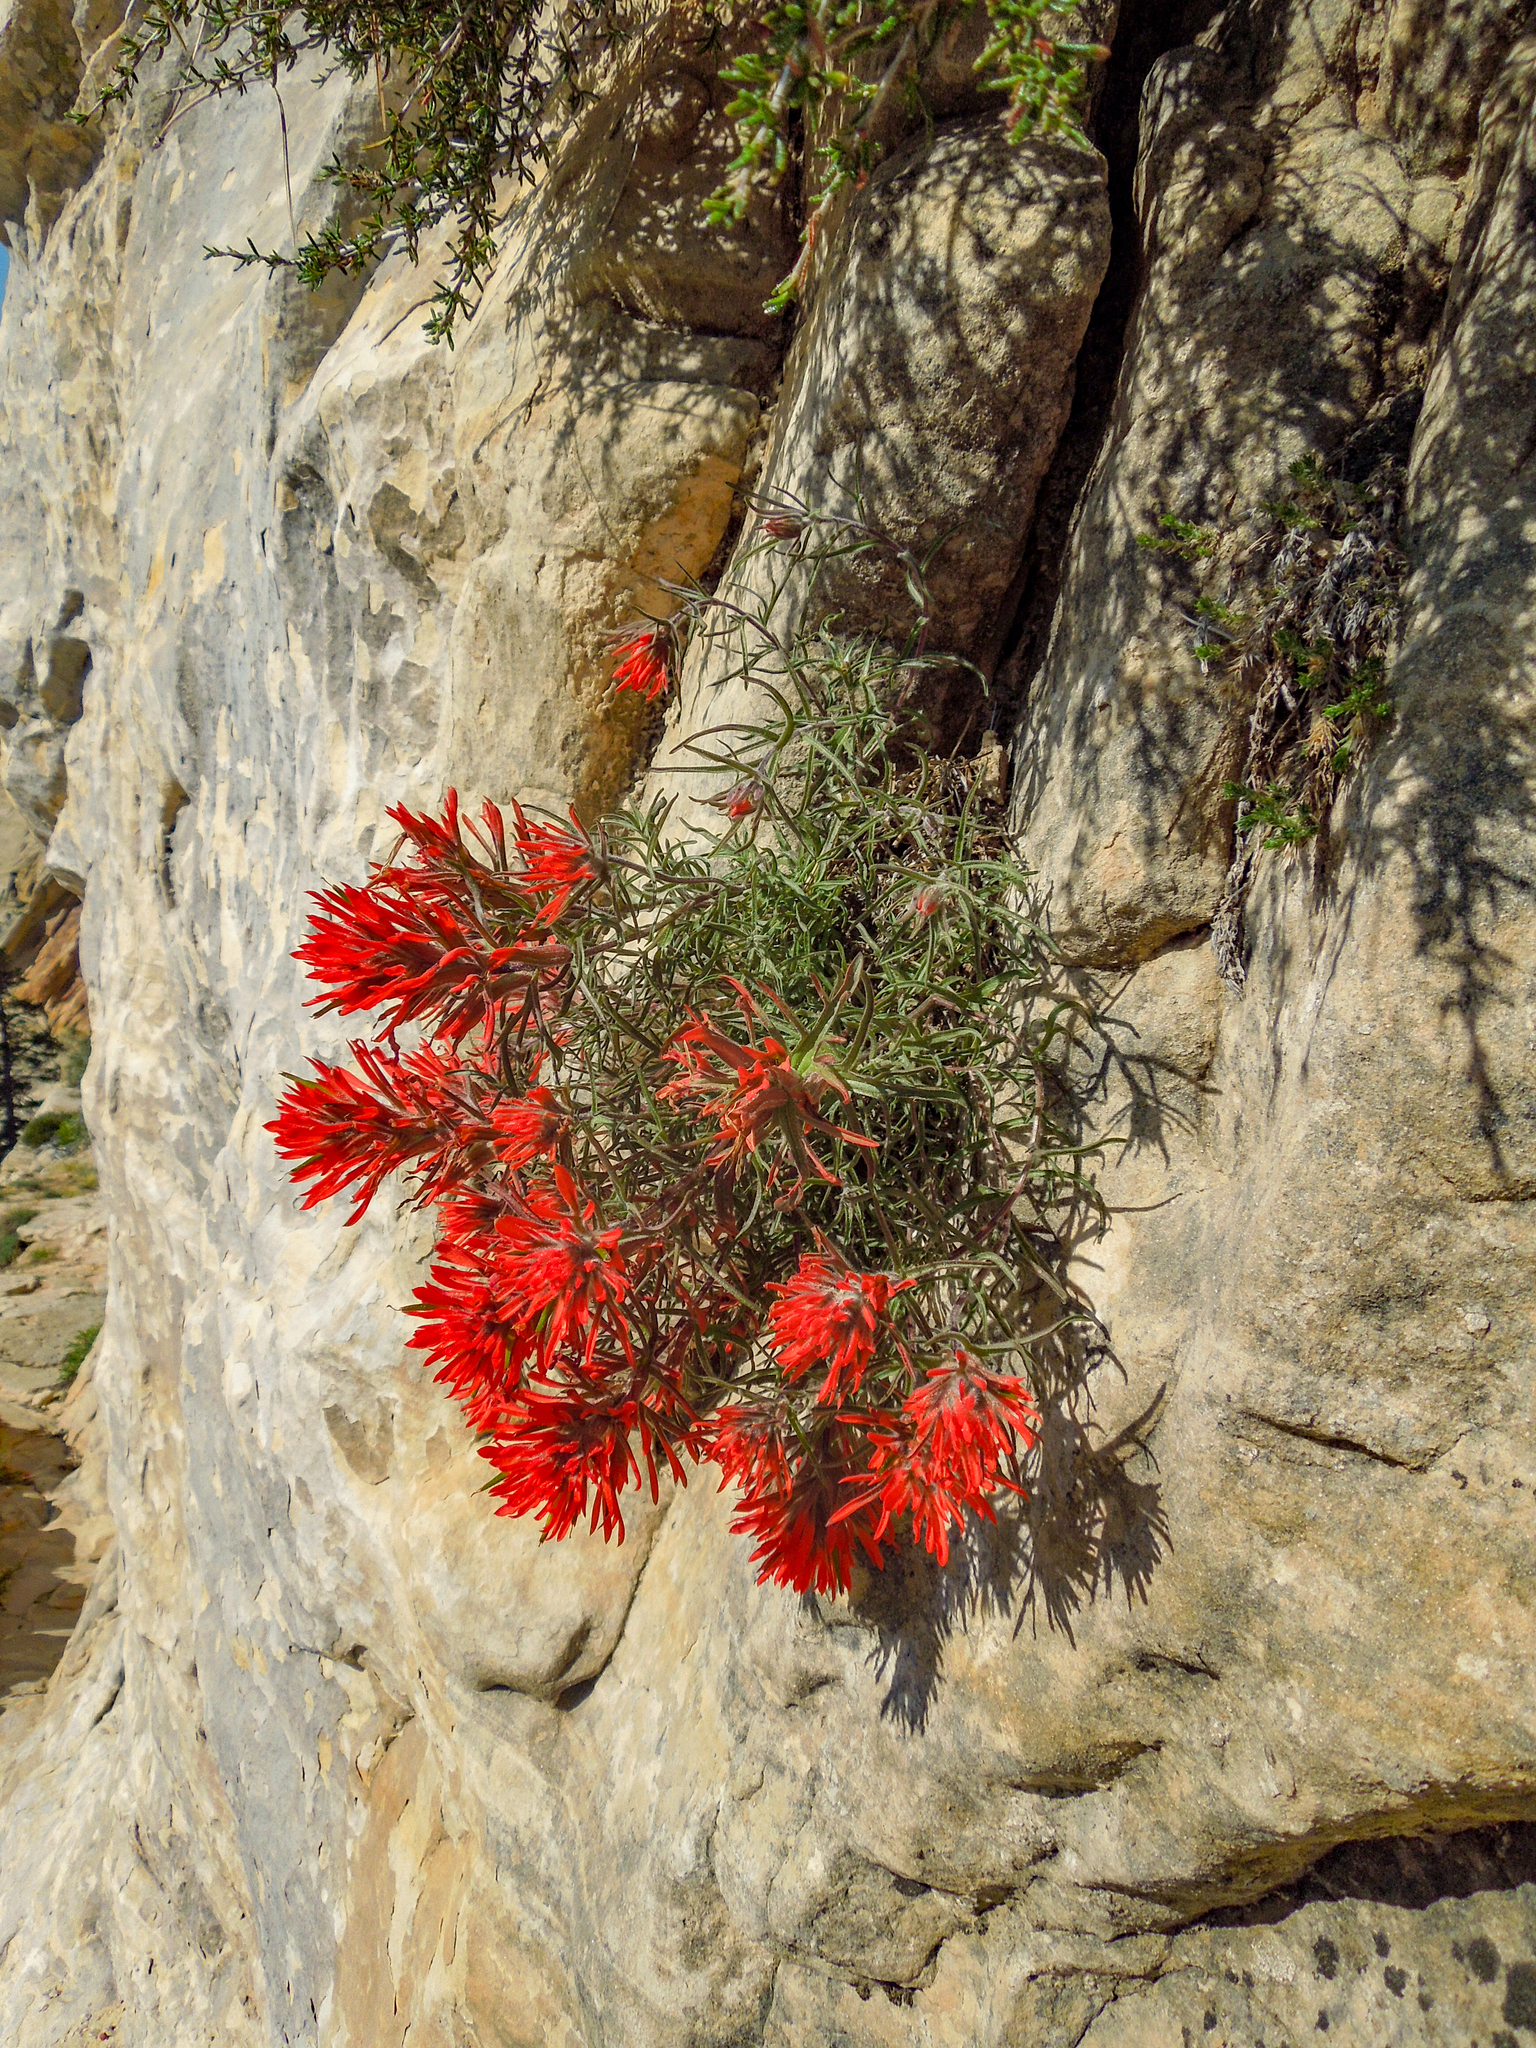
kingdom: Plantae
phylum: Tracheophyta
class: Magnoliopsida
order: Lamiales
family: Orobanchaceae
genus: Castilleja
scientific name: Castilleja scabrida
